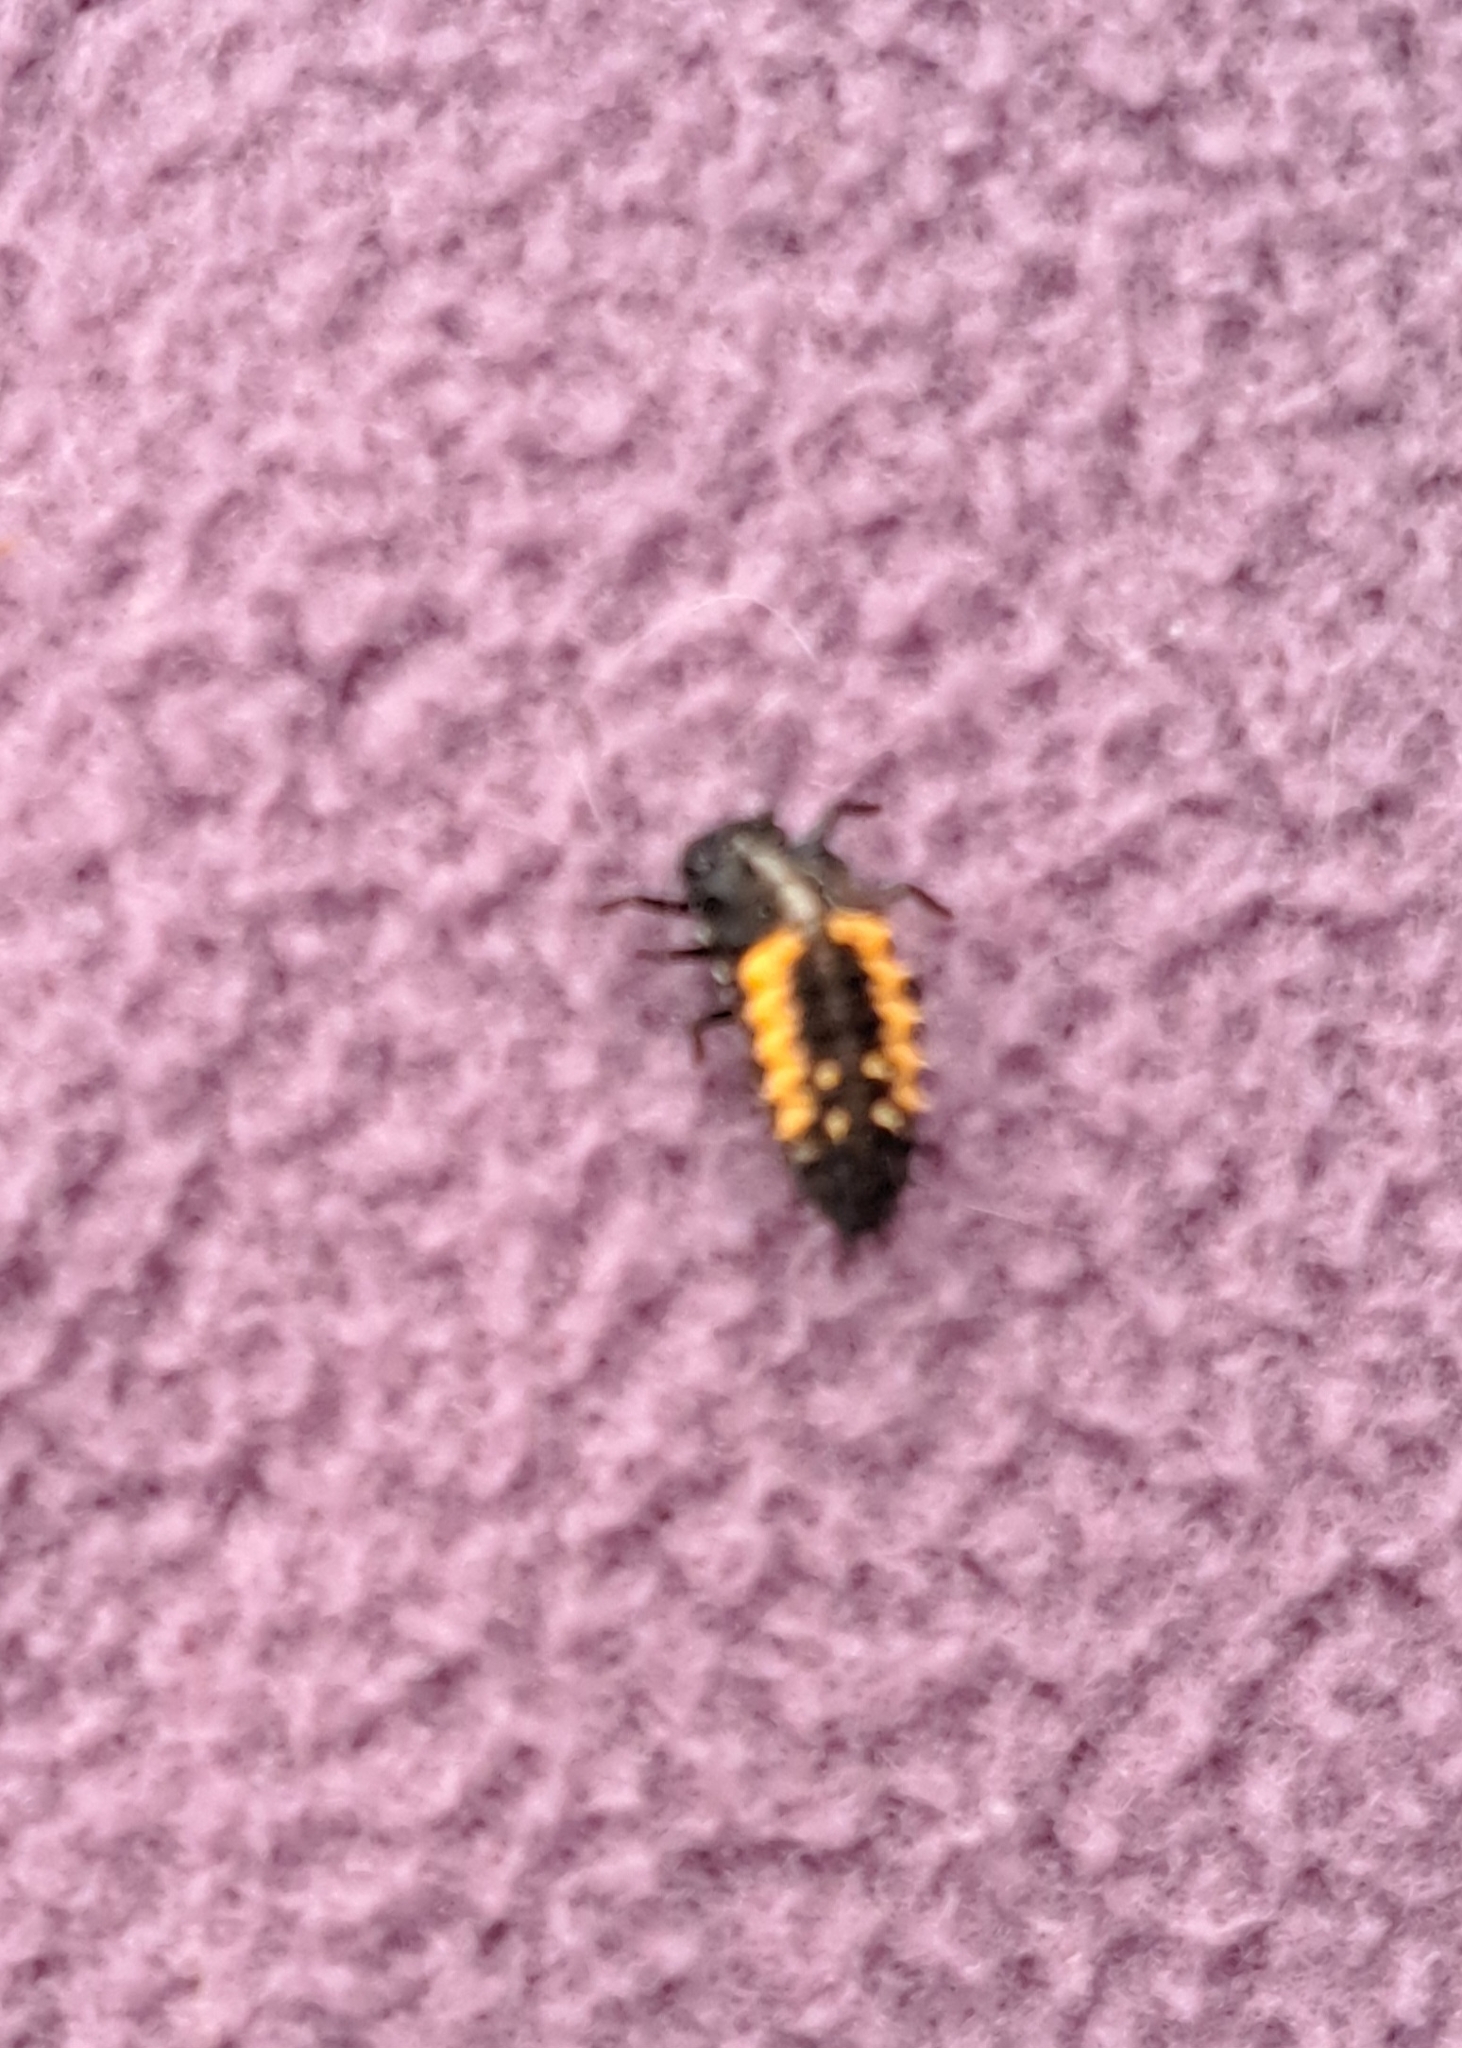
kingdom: Animalia
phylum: Arthropoda
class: Insecta
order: Coleoptera
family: Coccinellidae
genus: Harmonia
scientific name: Harmonia axyridis
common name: Harlequin ladybird
